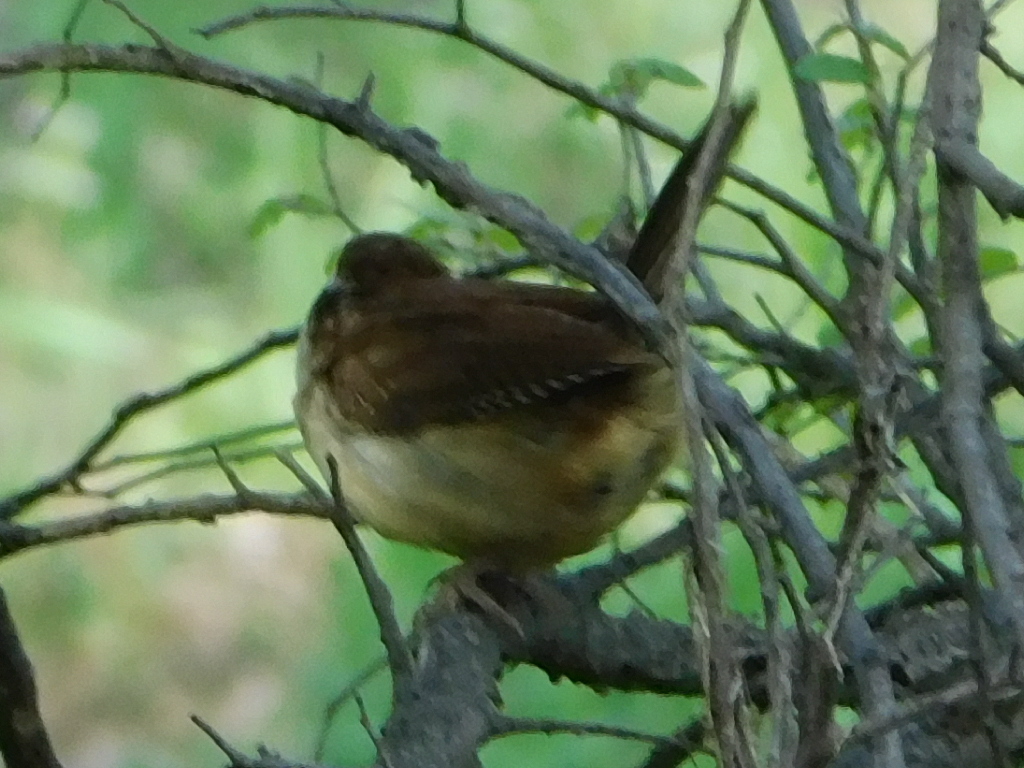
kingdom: Animalia
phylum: Chordata
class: Aves
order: Passeriformes
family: Troglodytidae
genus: Thryothorus
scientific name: Thryothorus ludovicianus
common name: Carolina wren
